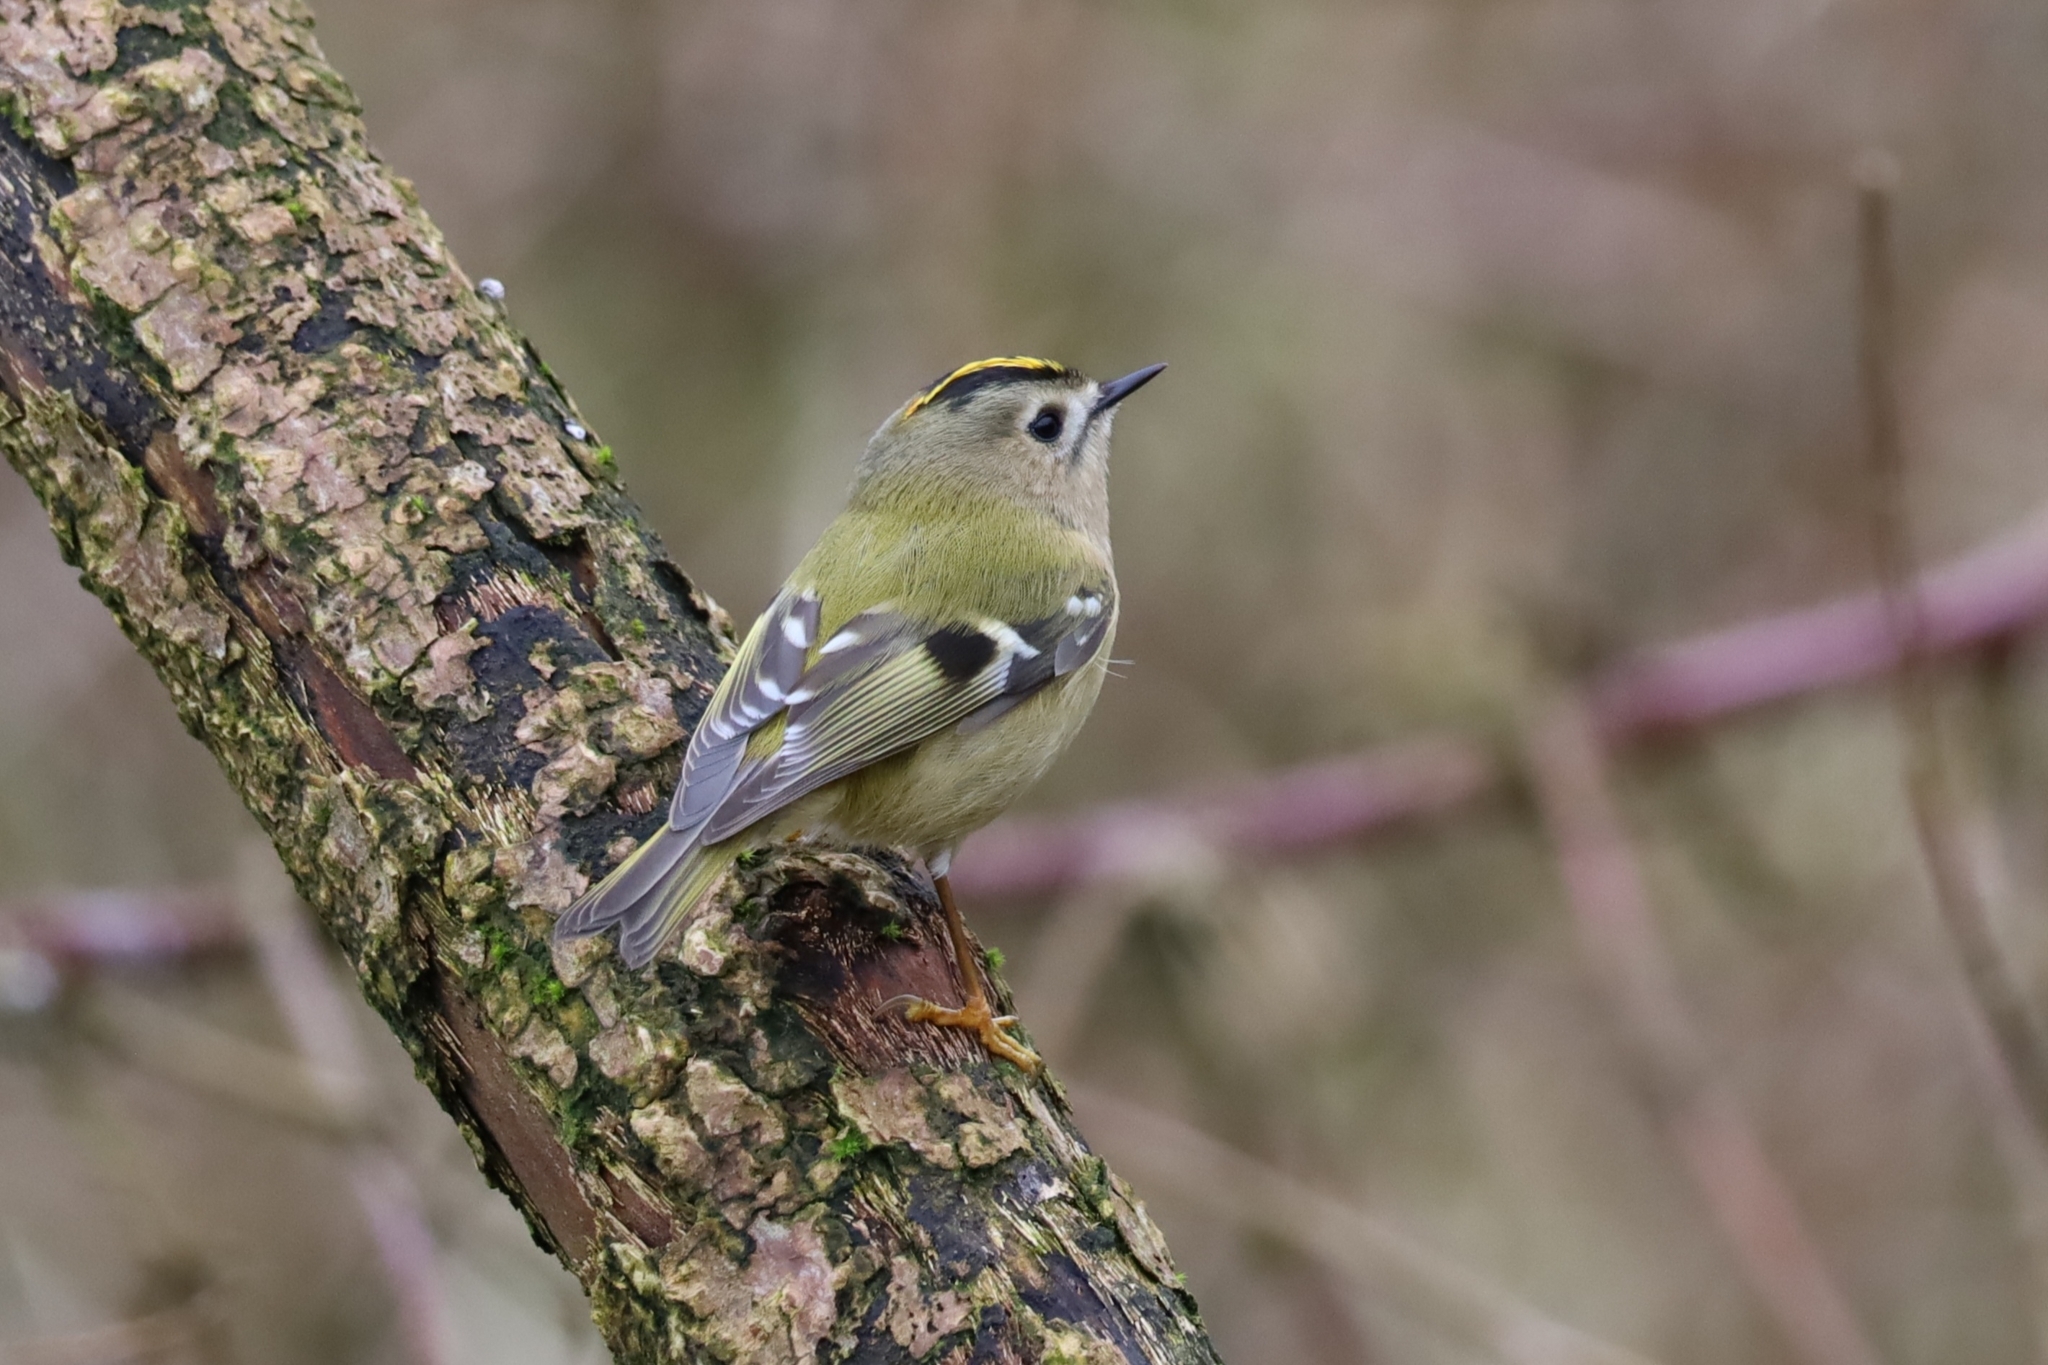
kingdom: Animalia
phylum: Chordata
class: Aves
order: Passeriformes
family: Regulidae
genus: Regulus
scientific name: Regulus regulus
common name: Goldcrest
